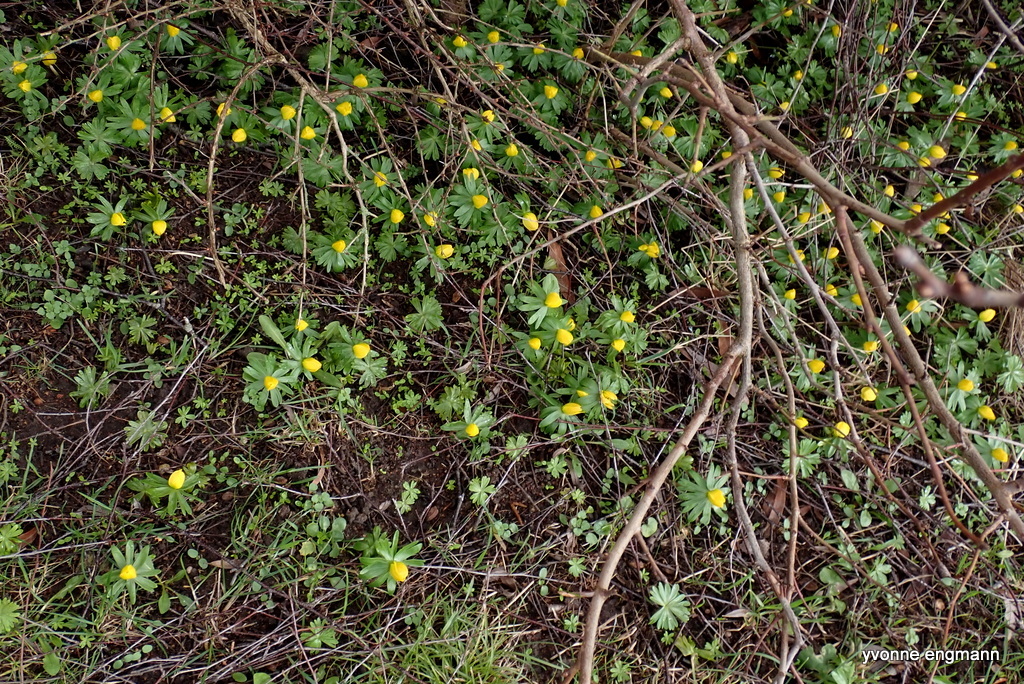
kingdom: Plantae
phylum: Tracheophyta
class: Magnoliopsida
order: Ranunculales
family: Ranunculaceae
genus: Eranthis
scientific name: Eranthis hyemalis
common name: Winter aconite
